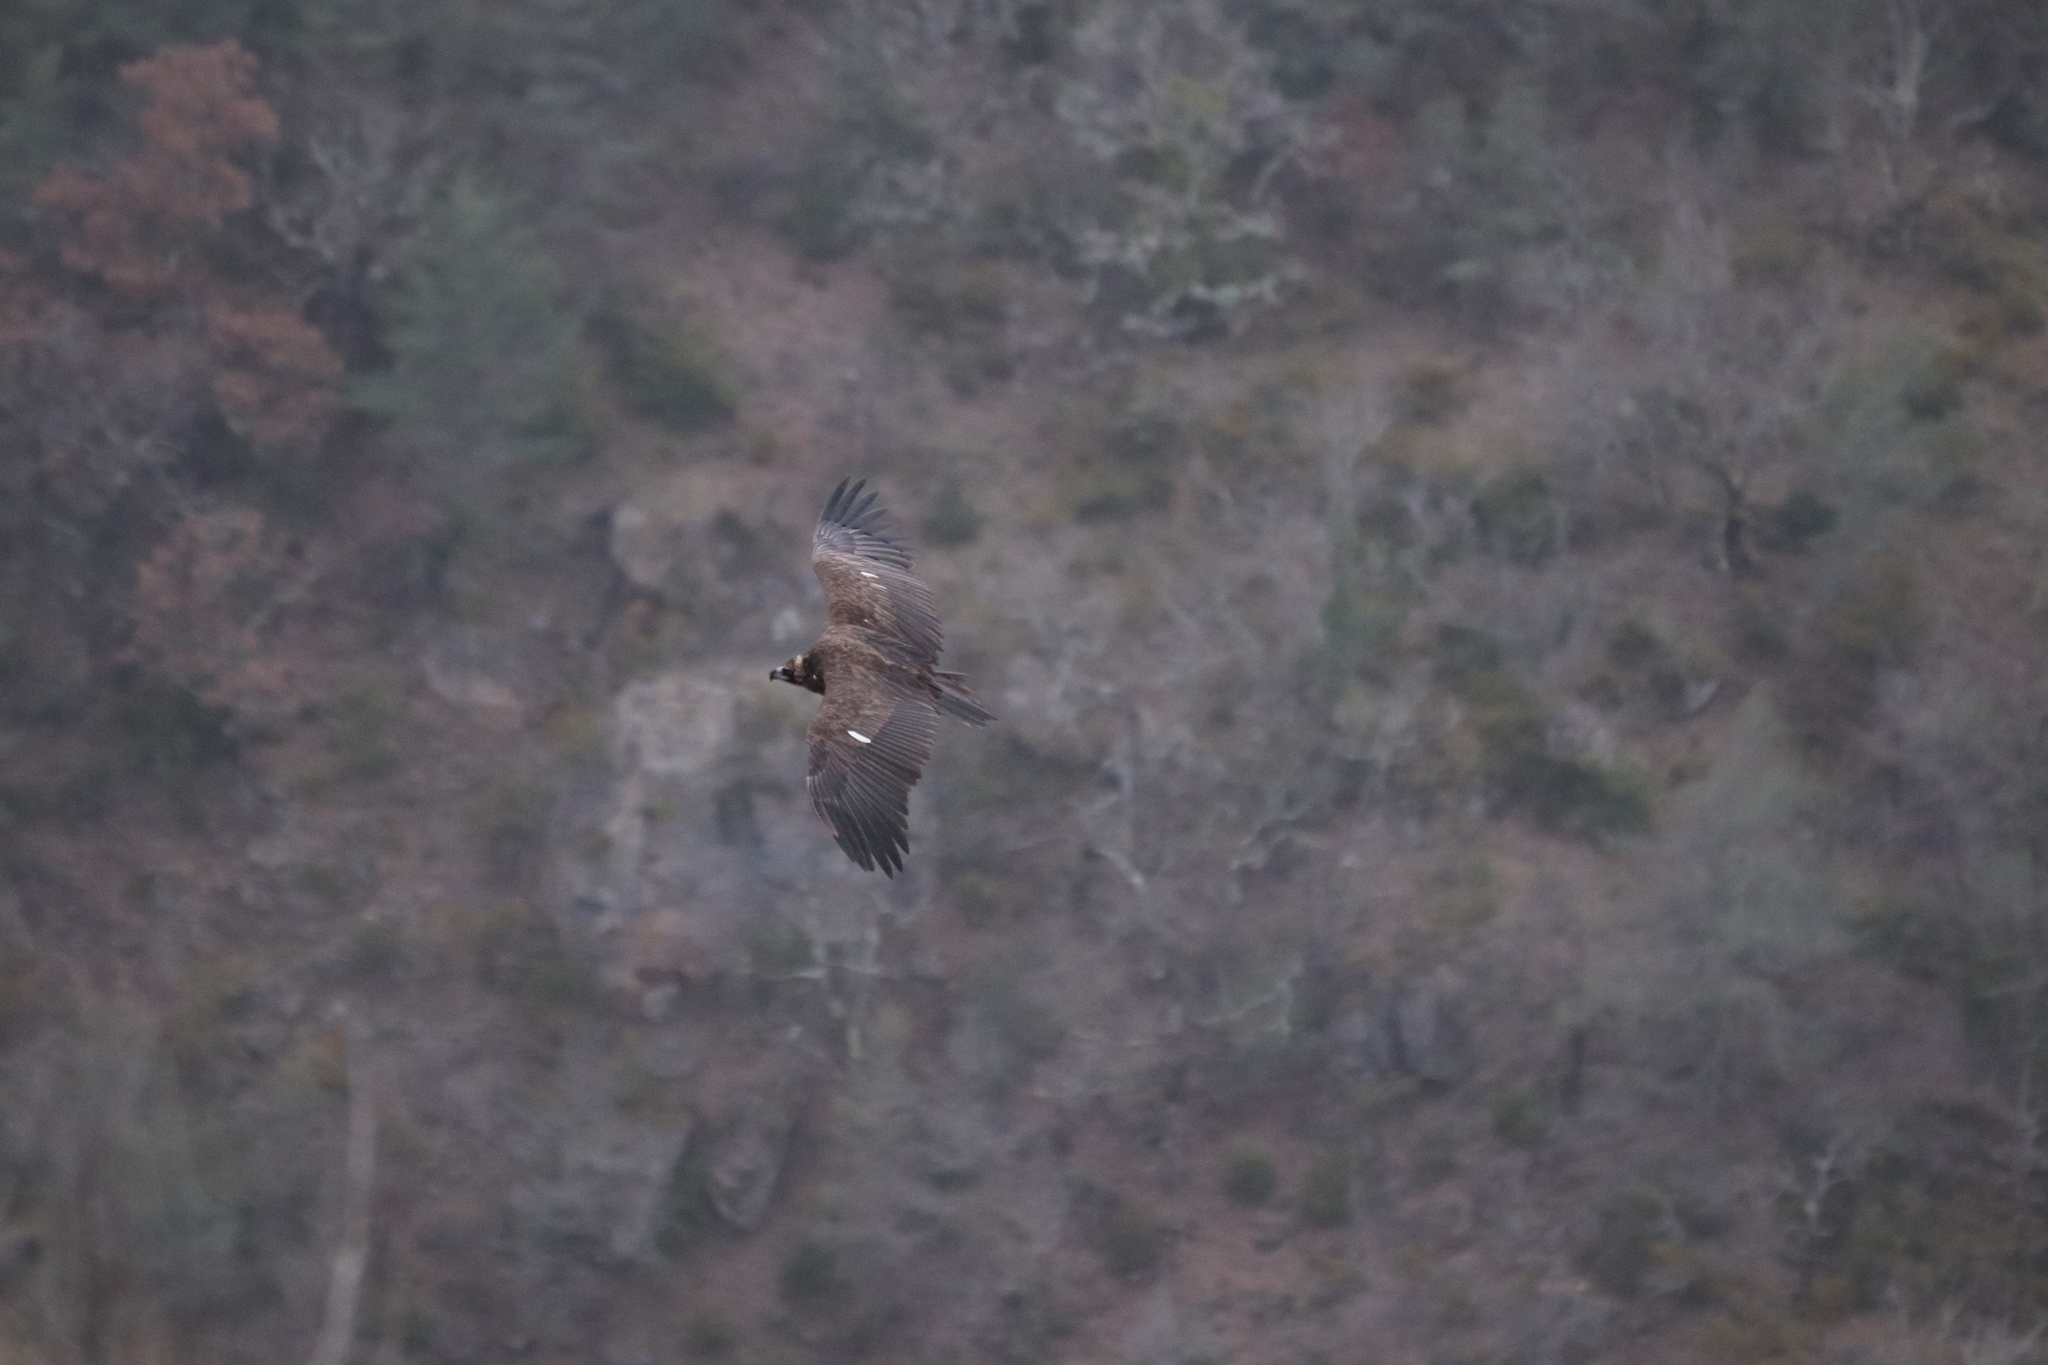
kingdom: Animalia
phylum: Chordata
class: Aves
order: Accipitriformes
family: Accipitridae
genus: Aegypius
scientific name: Aegypius monachus
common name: Cinereous vulture
